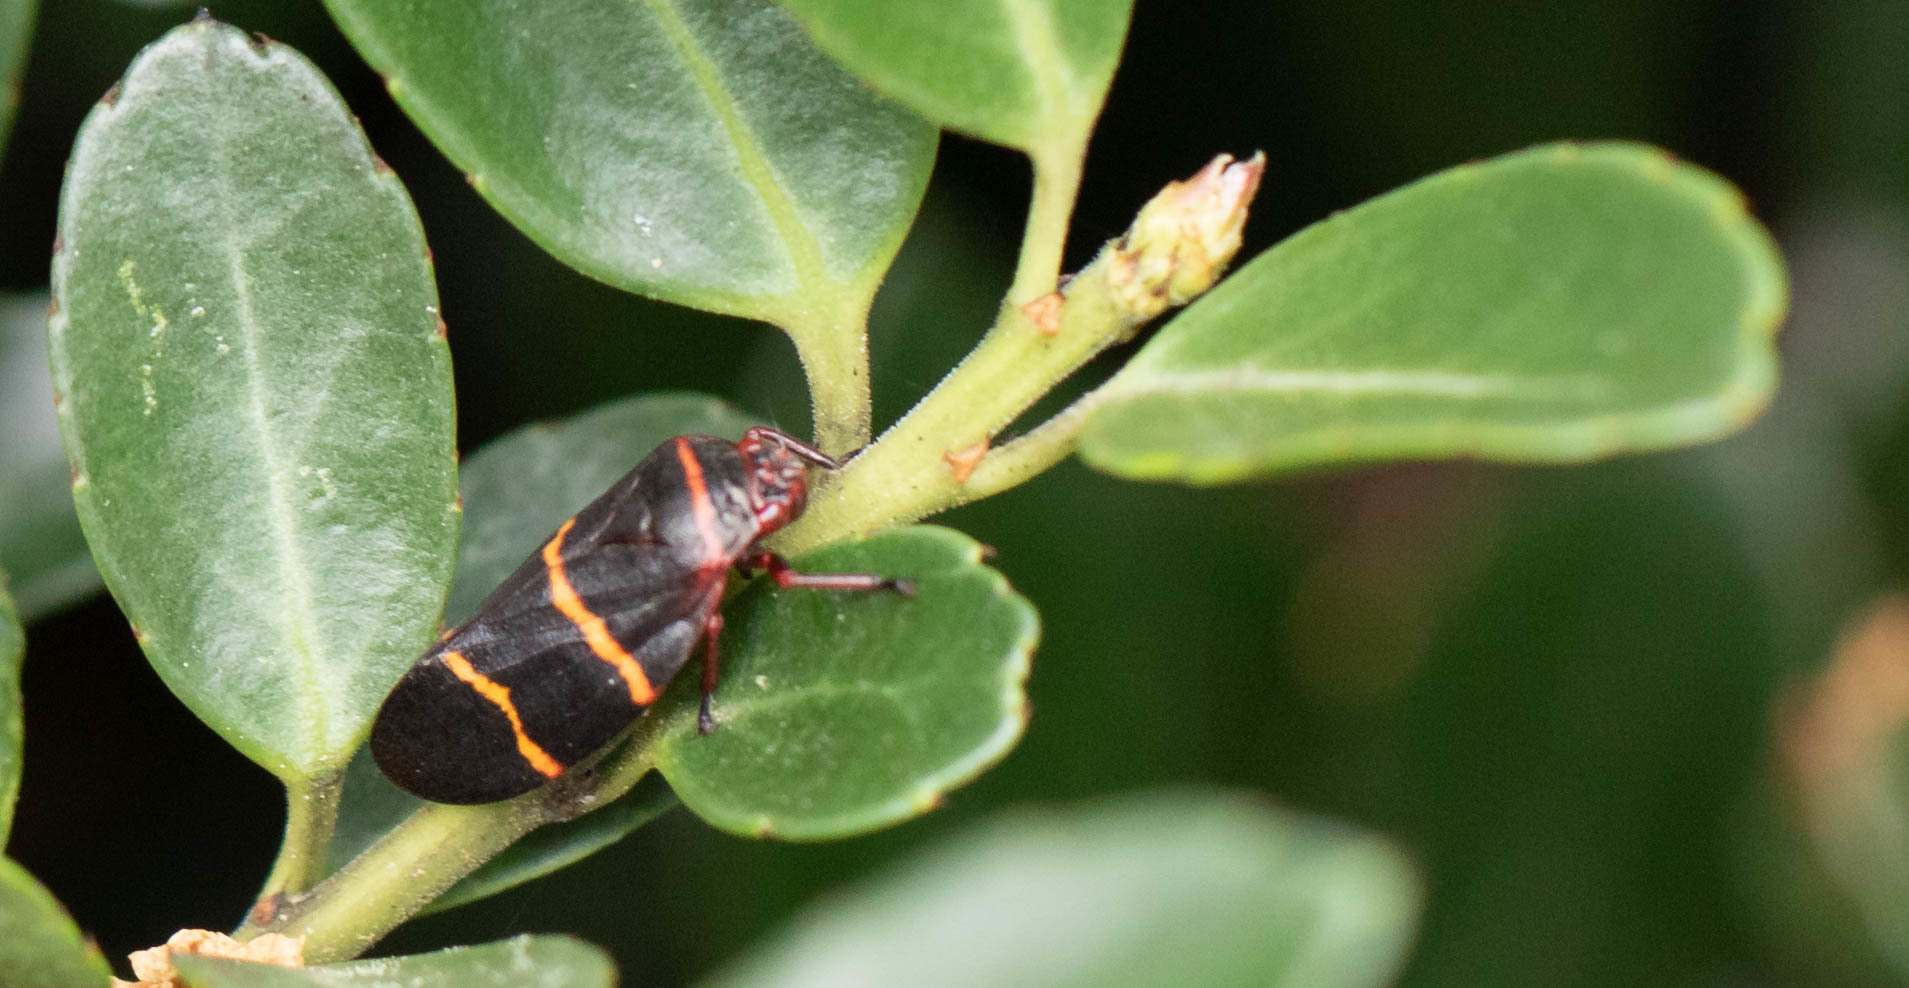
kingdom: Animalia
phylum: Arthropoda
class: Insecta
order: Hemiptera
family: Cercopidae
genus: Prosapia
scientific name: Prosapia bicincta
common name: Twolined spittlebug
